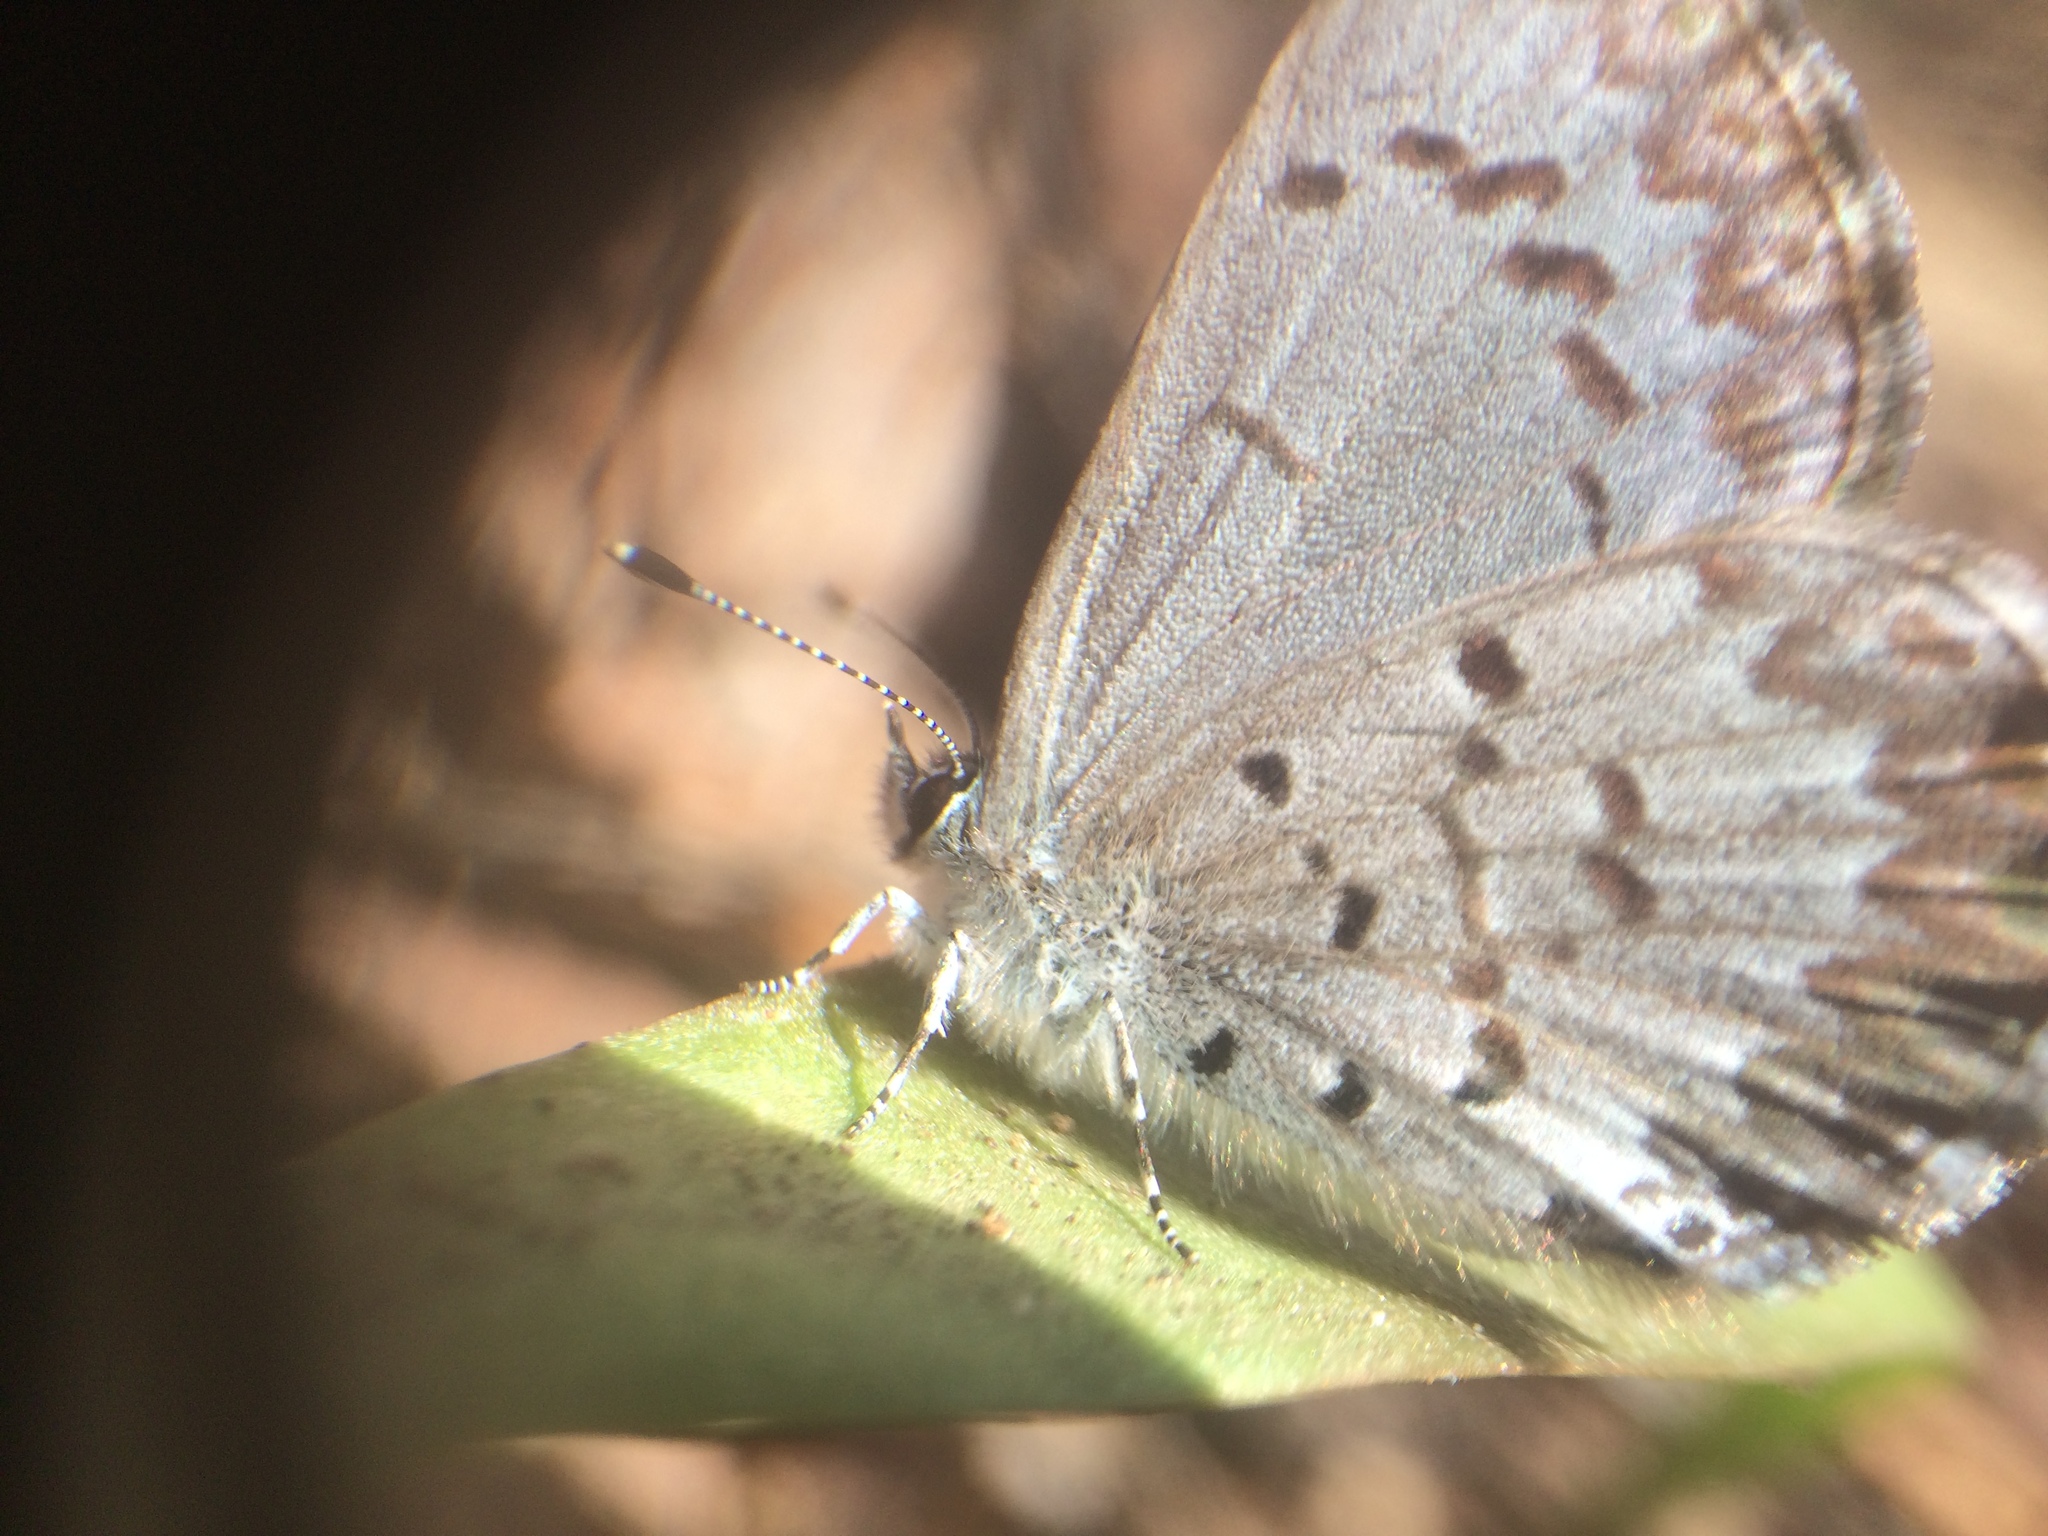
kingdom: Animalia
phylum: Arthropoda
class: Insecta
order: Lepidoptera
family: Lycaenidae
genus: Celastrina
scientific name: Celastrina lucia
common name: Lucia azure
